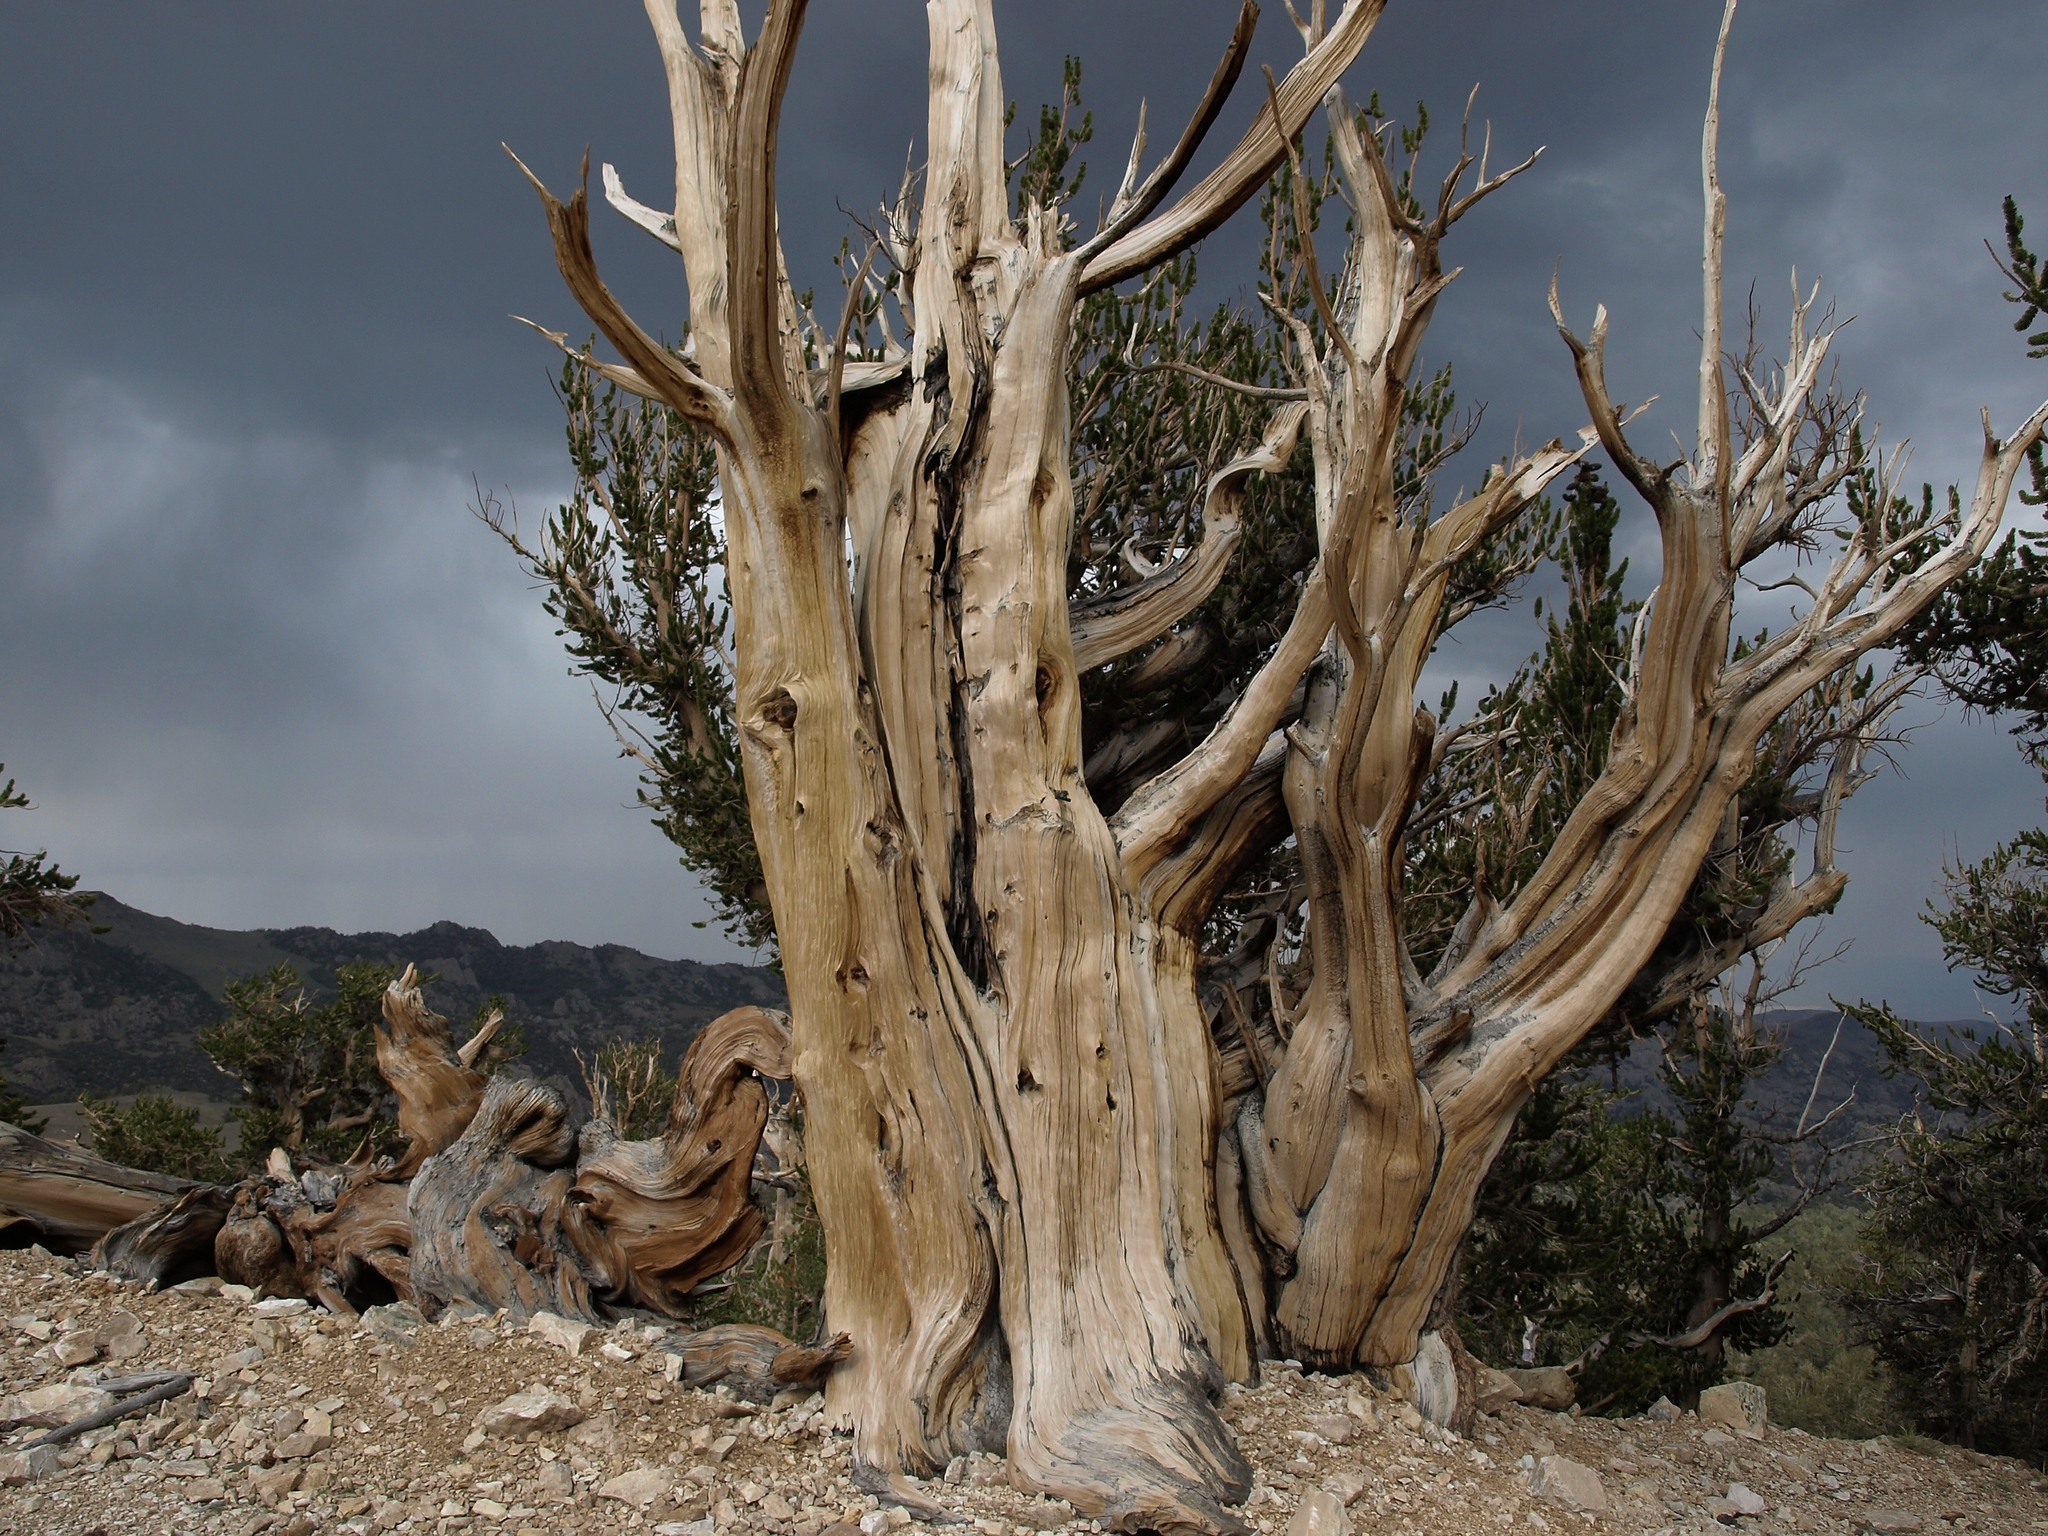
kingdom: Plantae
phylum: Tracheophyta
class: Pinopsida
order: Pinales
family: Pinaceae
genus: Pinus
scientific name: Pinus longaeva
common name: Intermountain bristlecone pine
